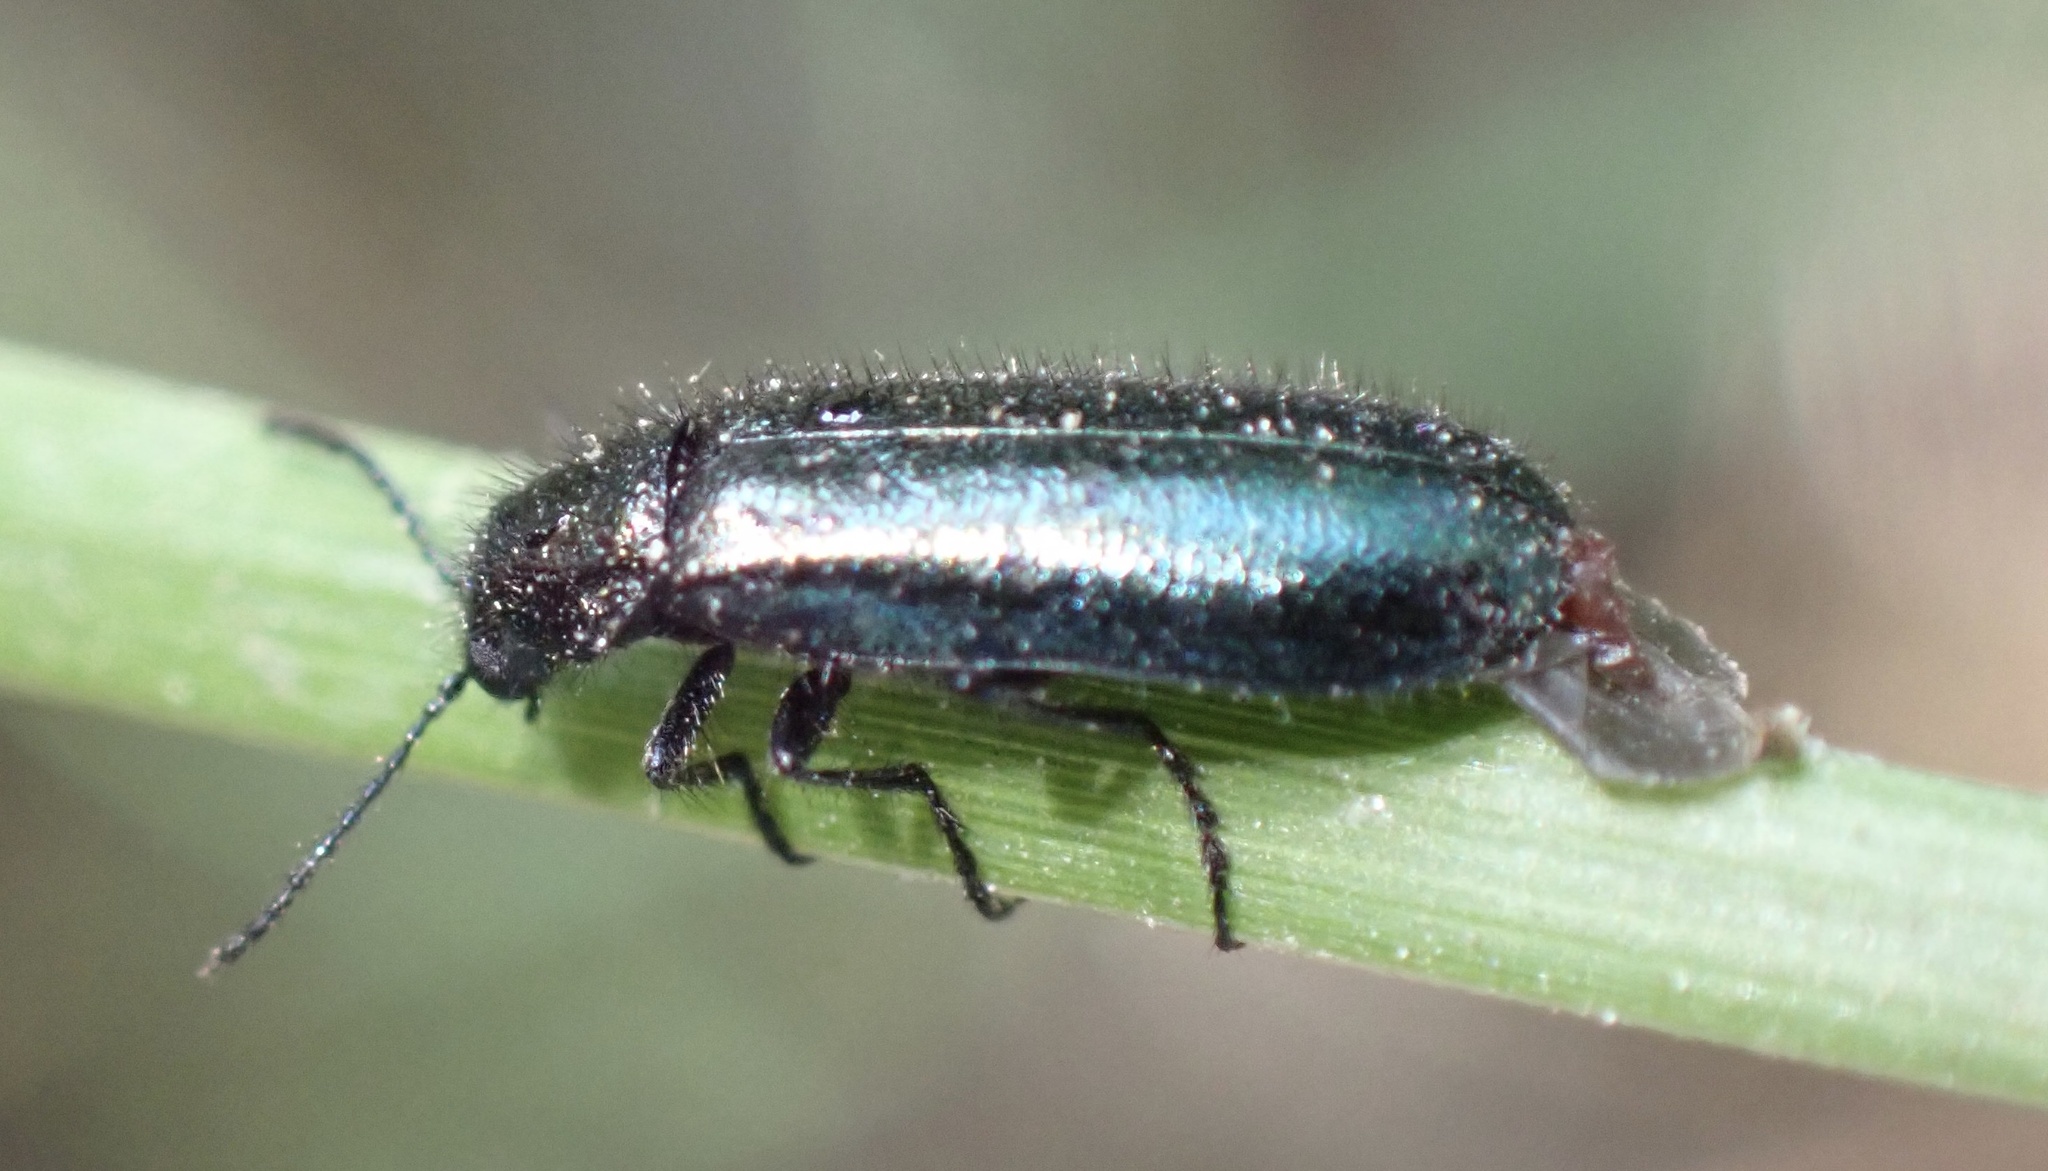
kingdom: Animalia
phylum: Arthropoda
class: Insecta
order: Coleoptera
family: Melyridae
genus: Dasytes
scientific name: Dasytes caeruleus
